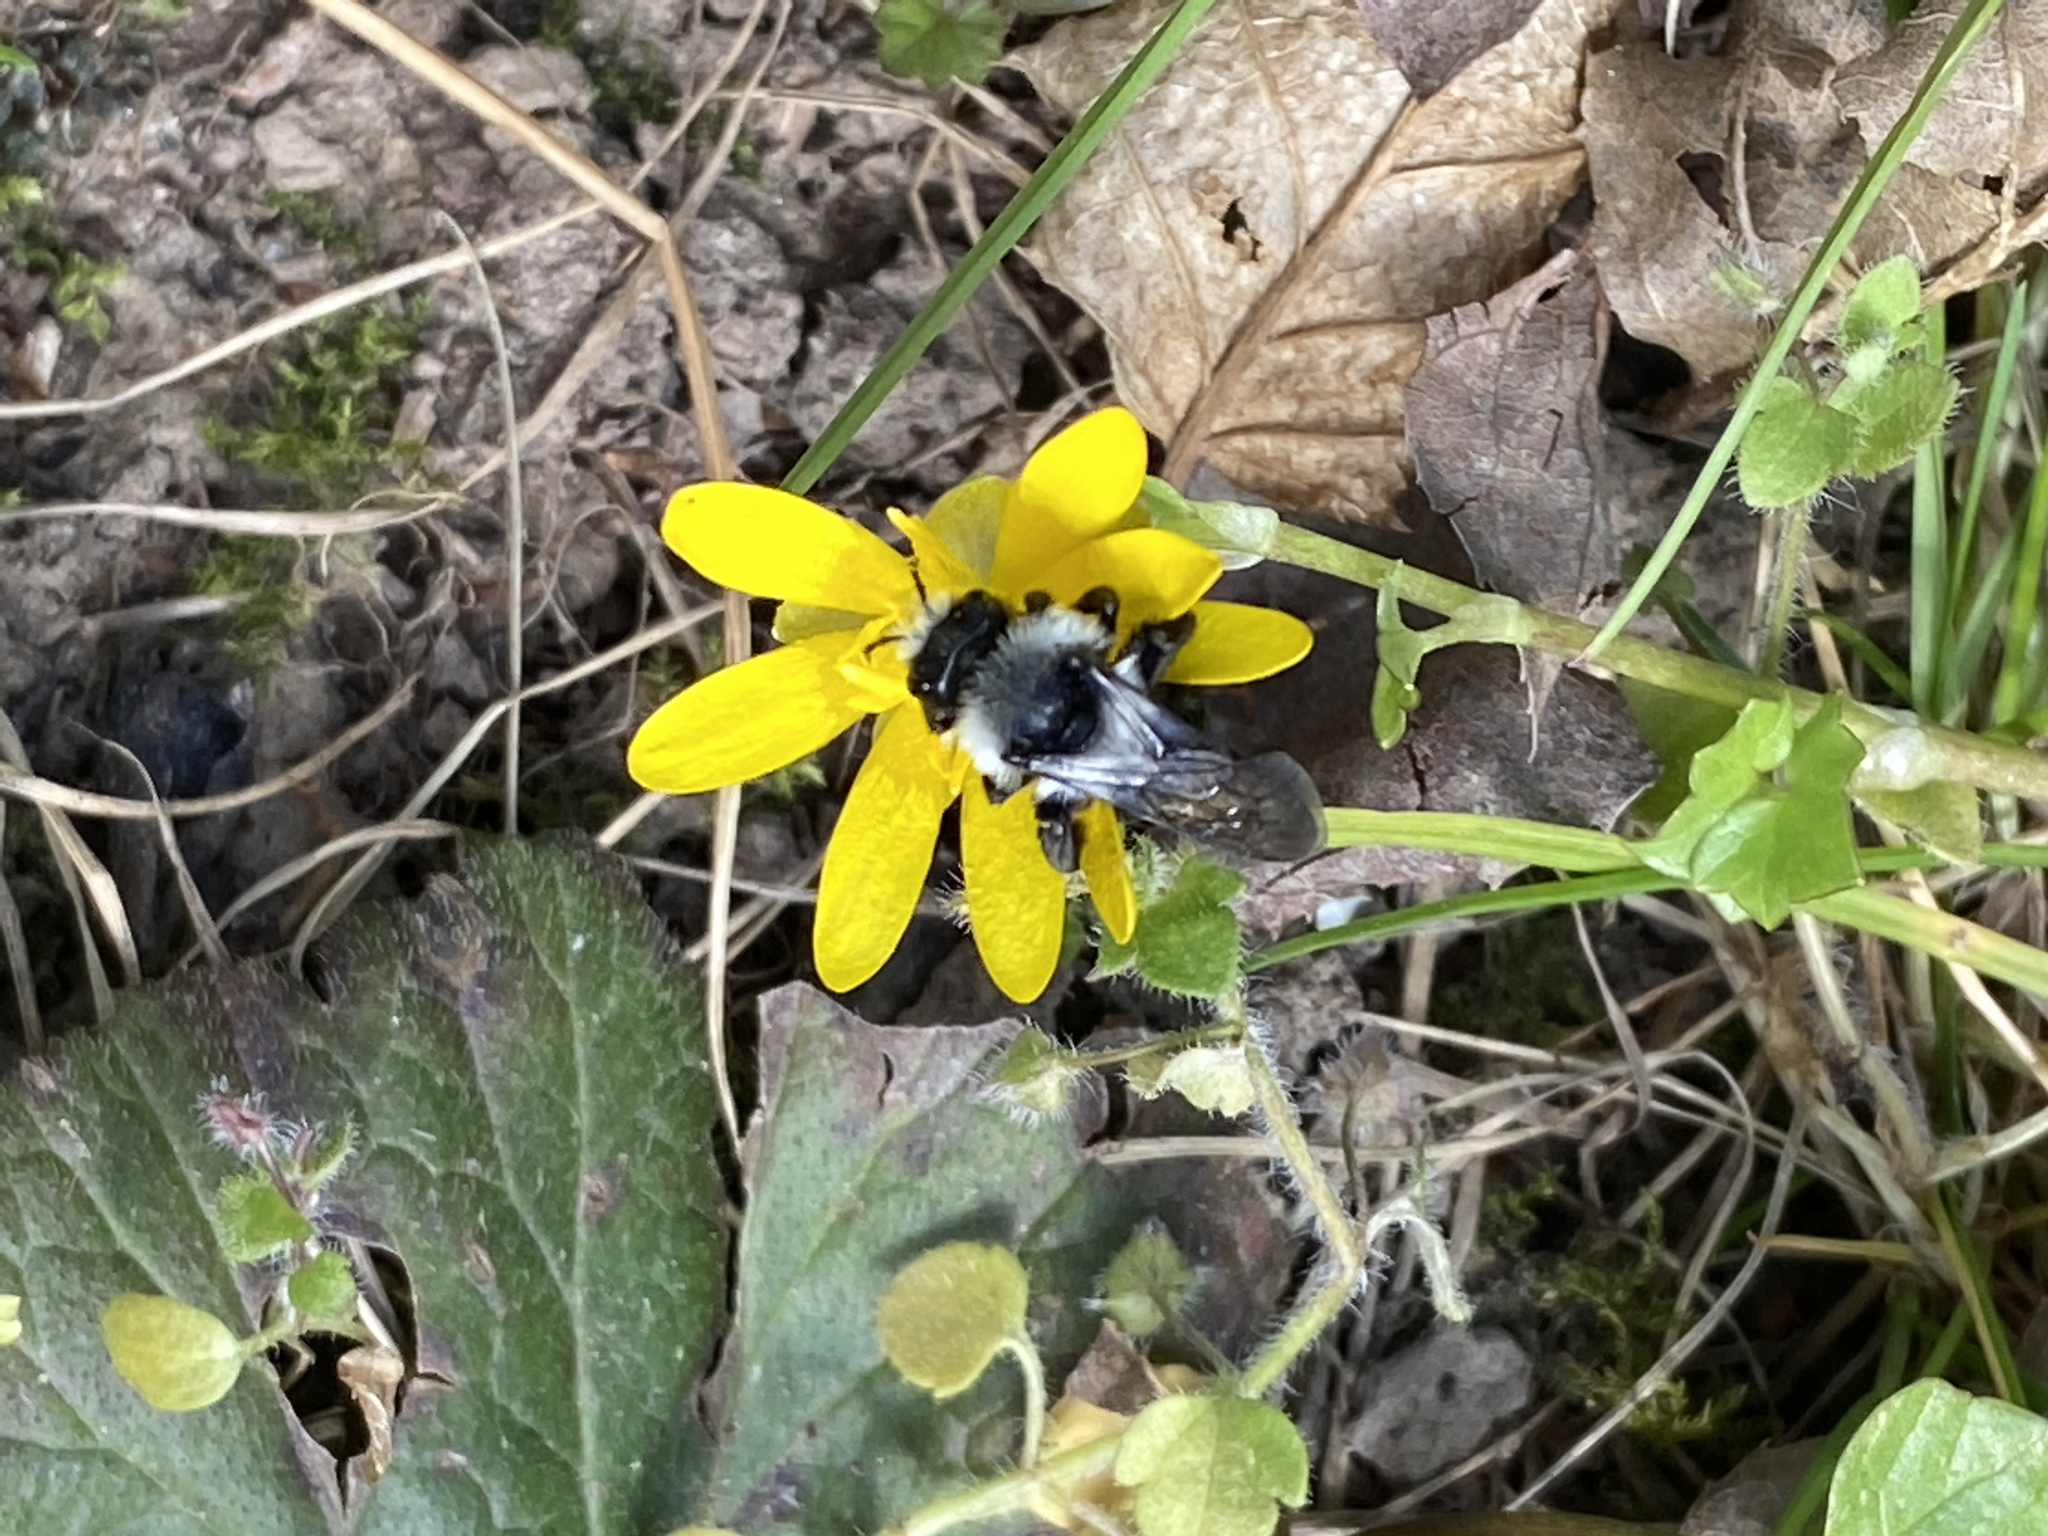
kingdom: Animalia
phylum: Arthropoda
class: Insecta
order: Hymenoptera
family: Andrenidae
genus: Andrena
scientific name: Andrena cineraria
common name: Ashy mining bee
